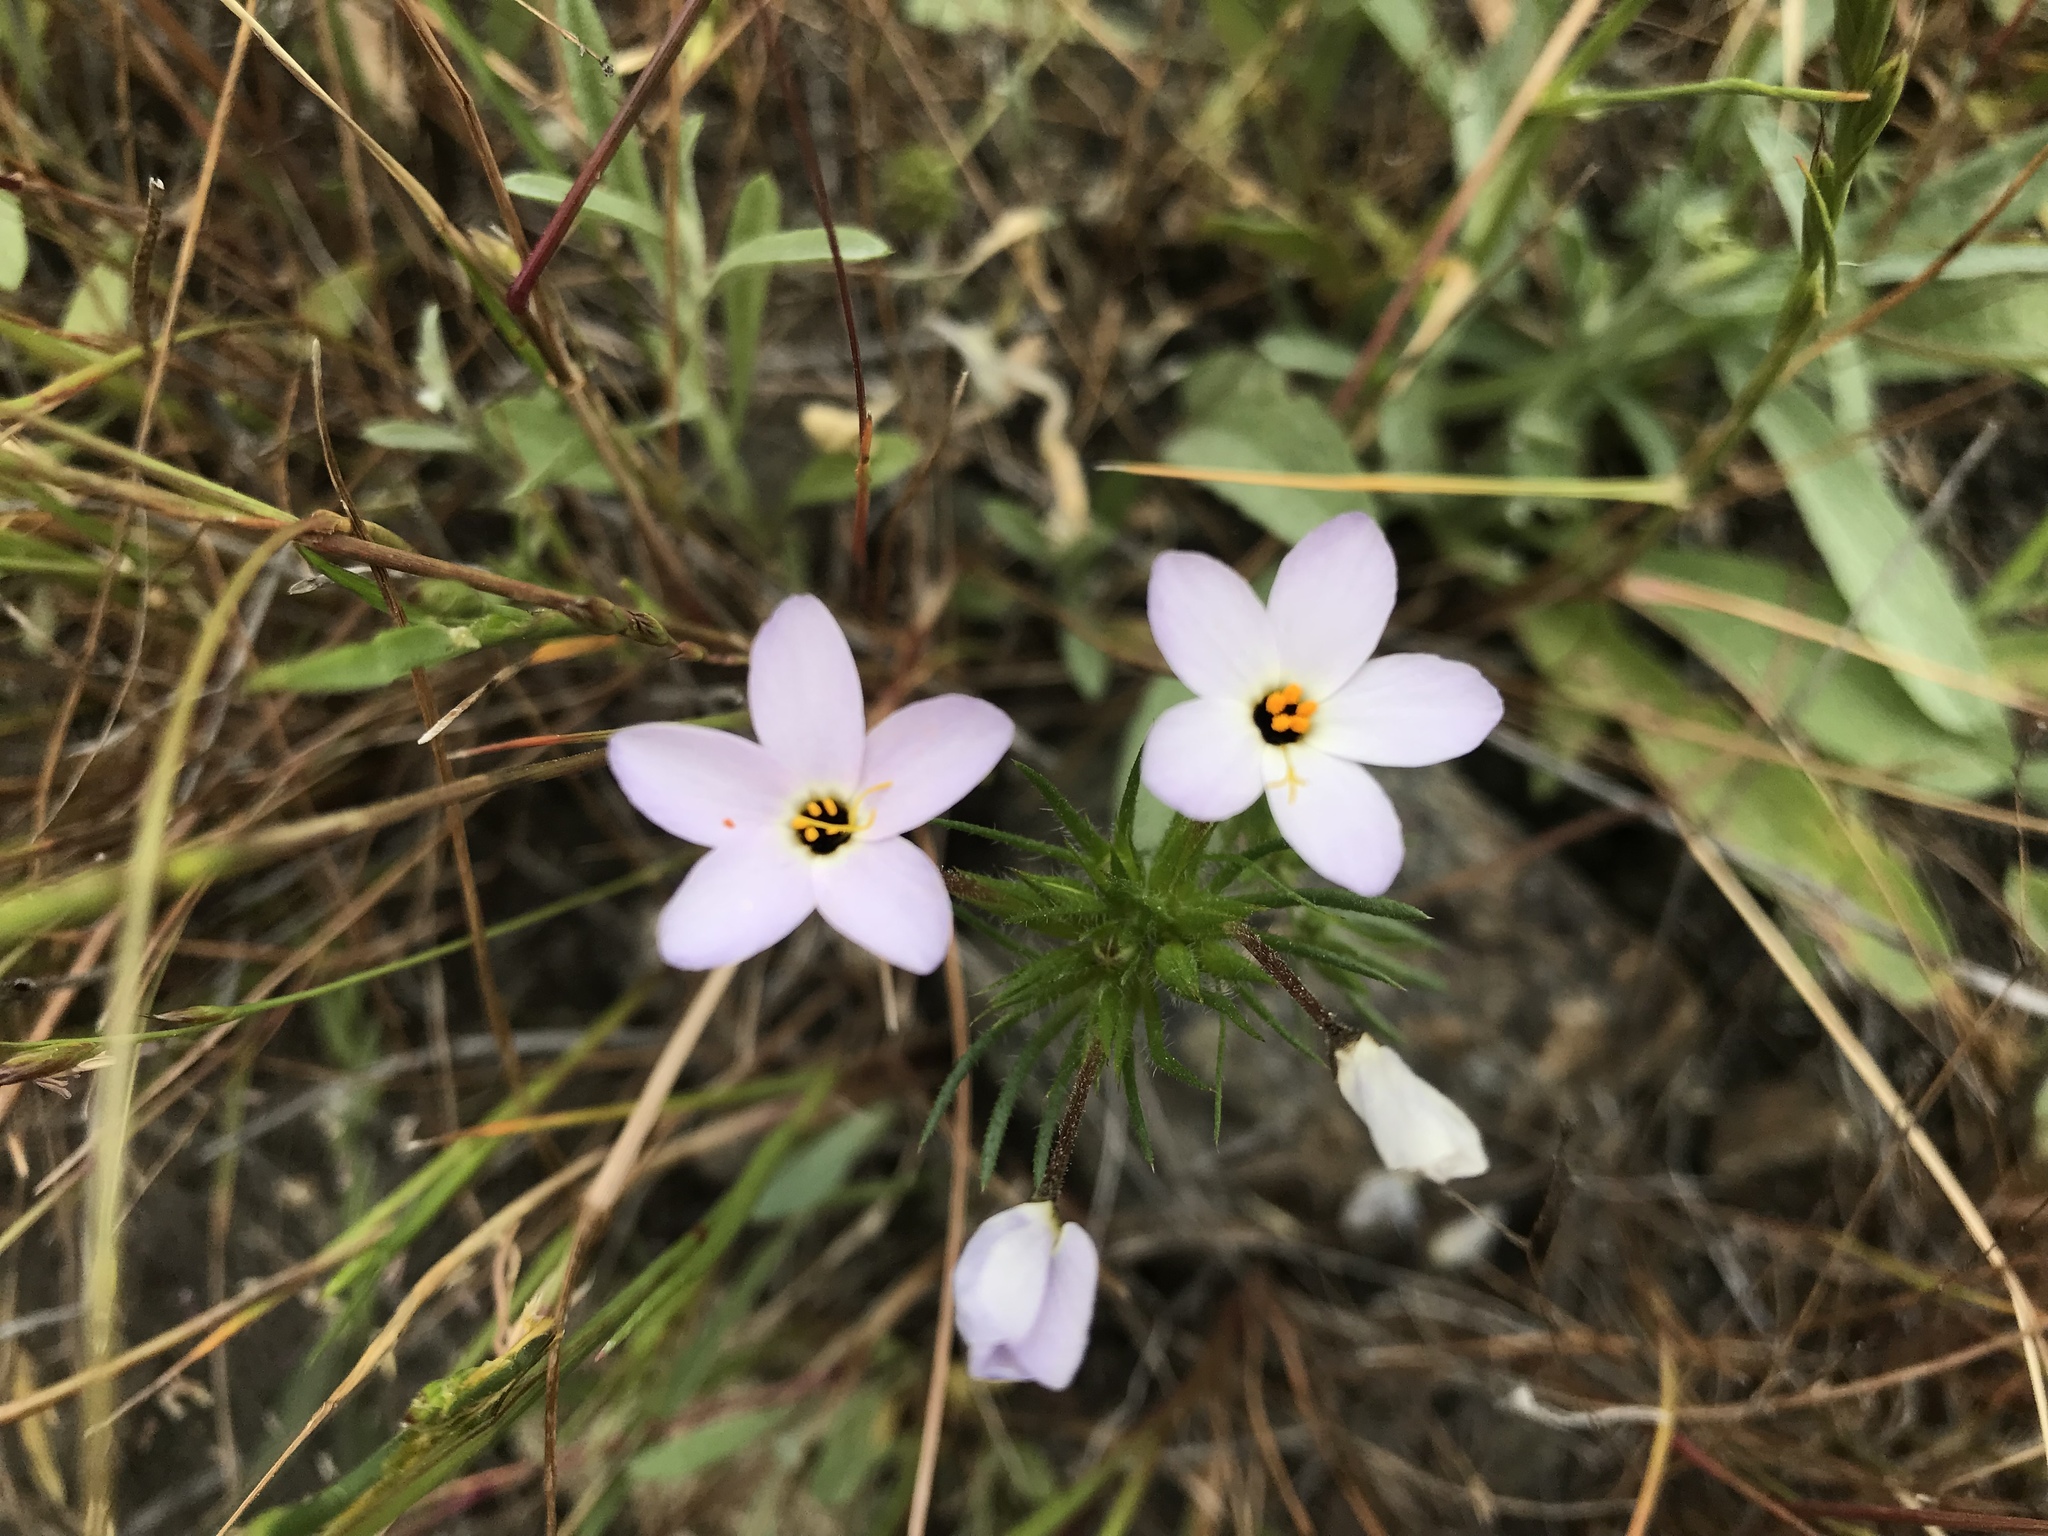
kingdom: Plantae
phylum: Tracheophyta
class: Magnoliopsida
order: Ericales
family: Polemoniaceae
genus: Leptosiphon
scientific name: Leptosiphon androsaceus
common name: False babystars
